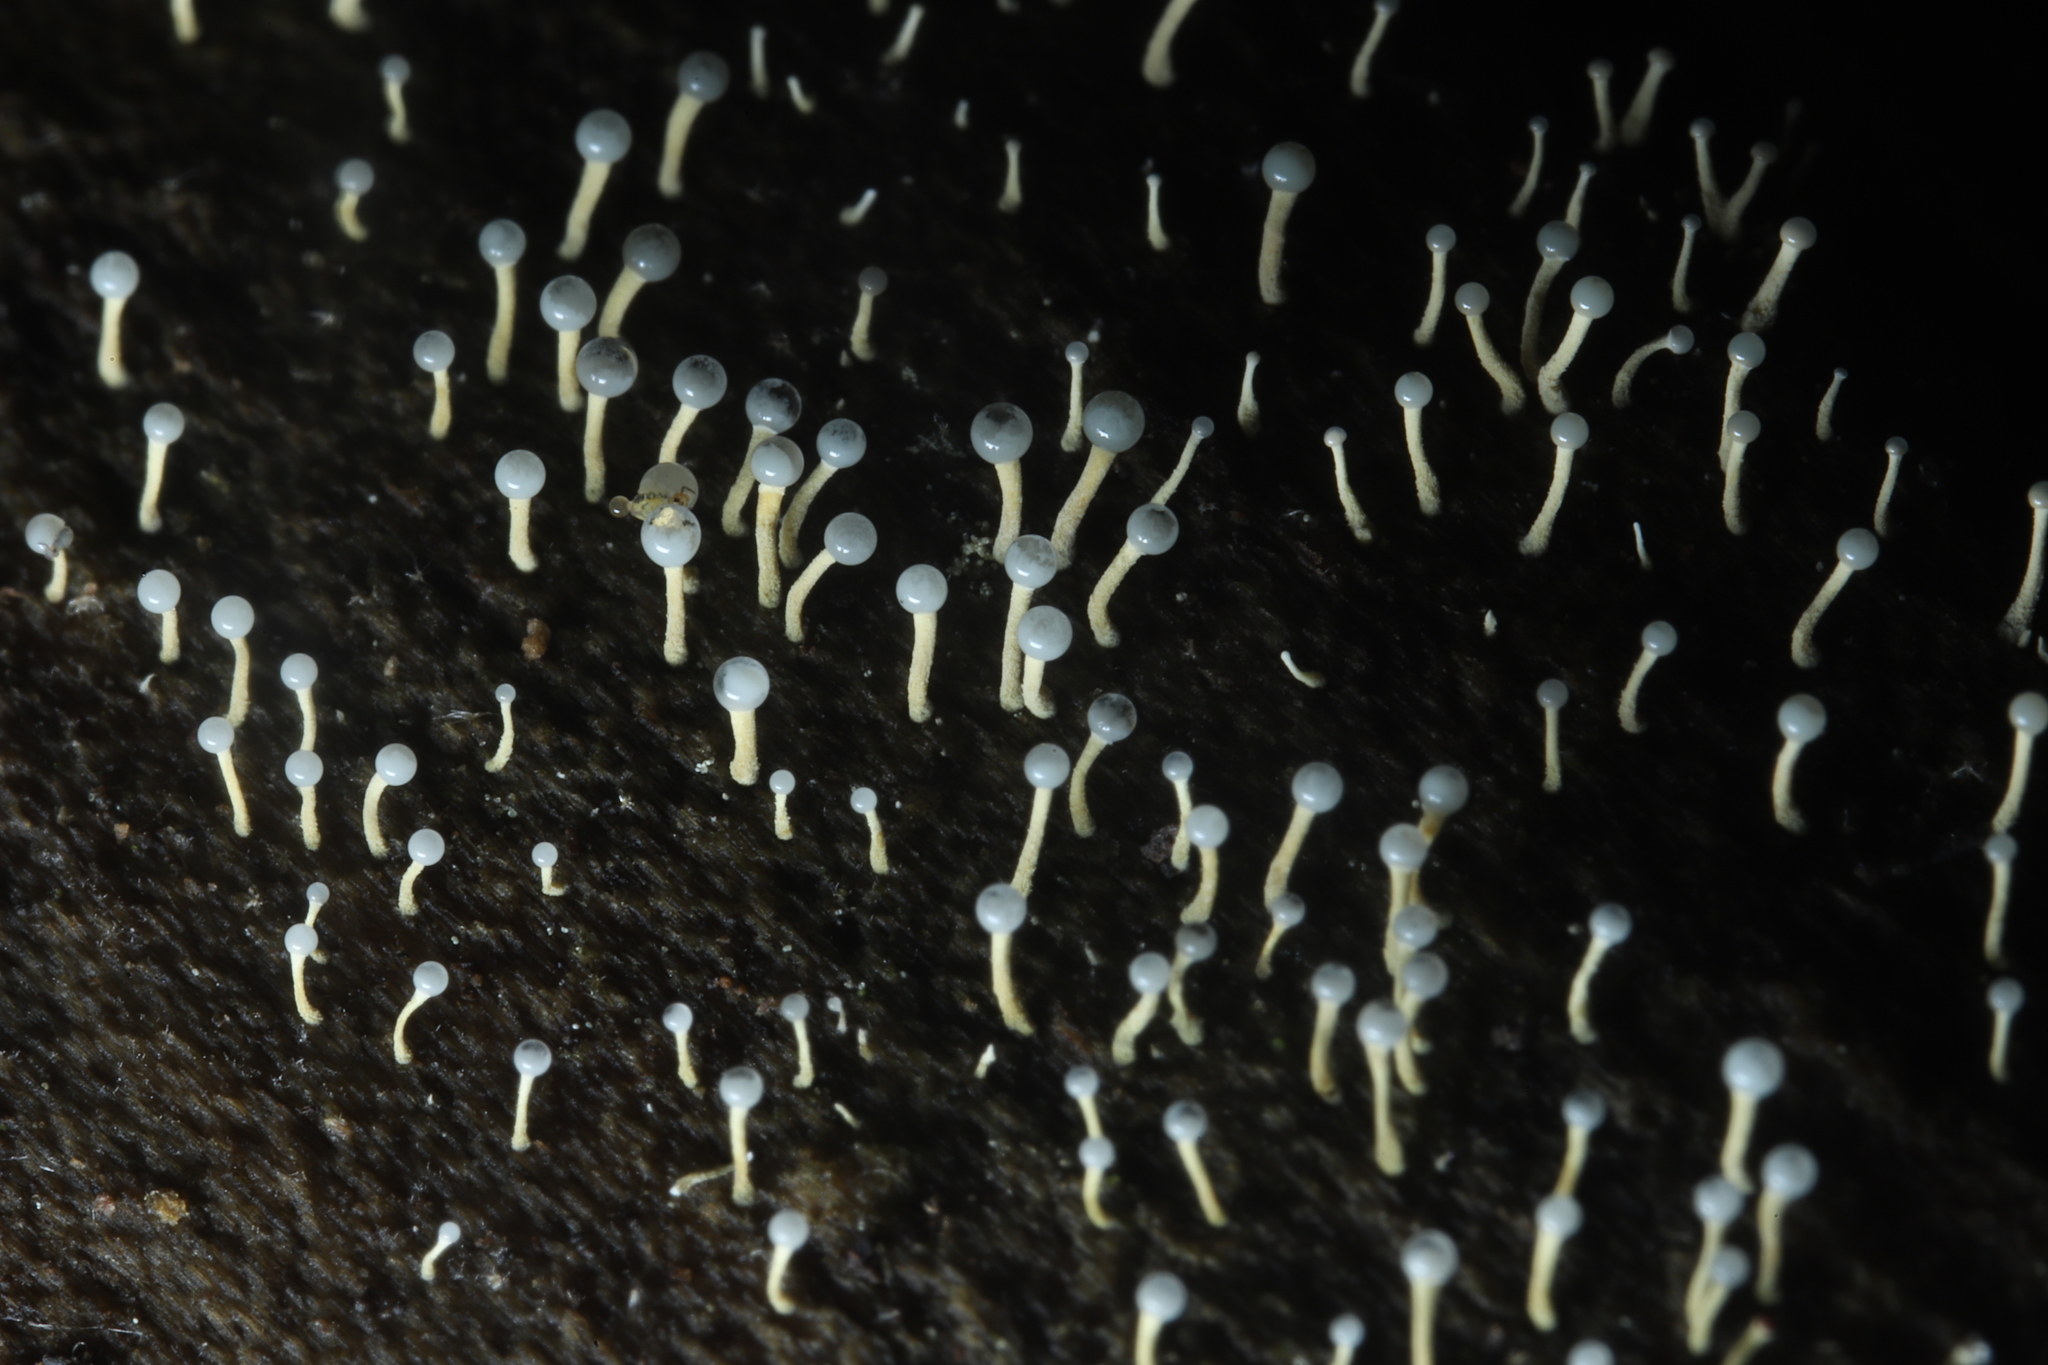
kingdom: Fungi
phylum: Ascomycota
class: Sordariomycetes
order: Hypocreales
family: Hypocreaceae
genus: Trichoderma
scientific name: Trichoderma flavipes
